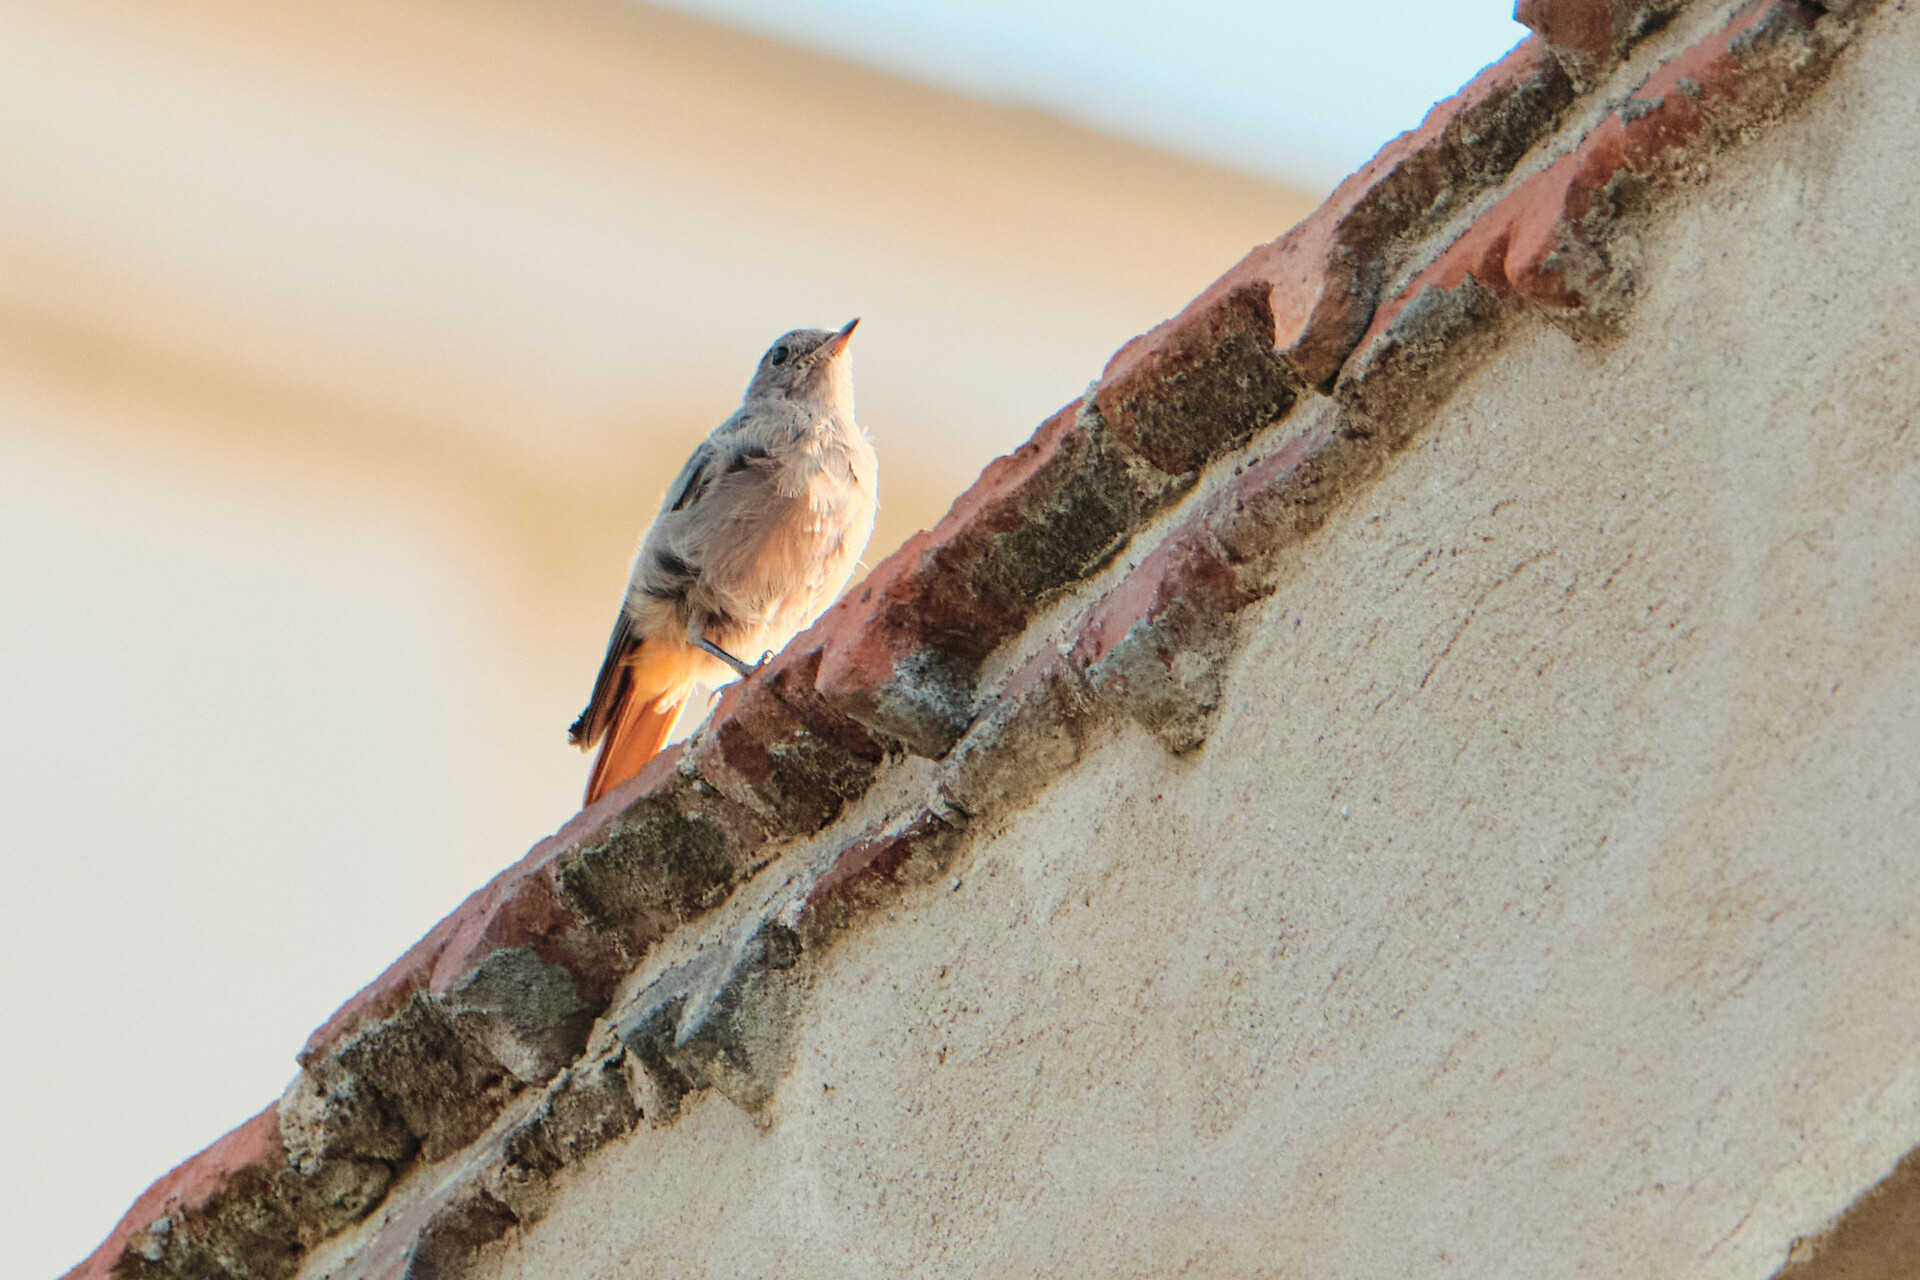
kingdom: Animalia
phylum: Chordata
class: Aves
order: Passeriformes
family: Muscicapidae
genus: Phoenicurus
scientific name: Phoenicurus ochruros
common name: Black redstart
